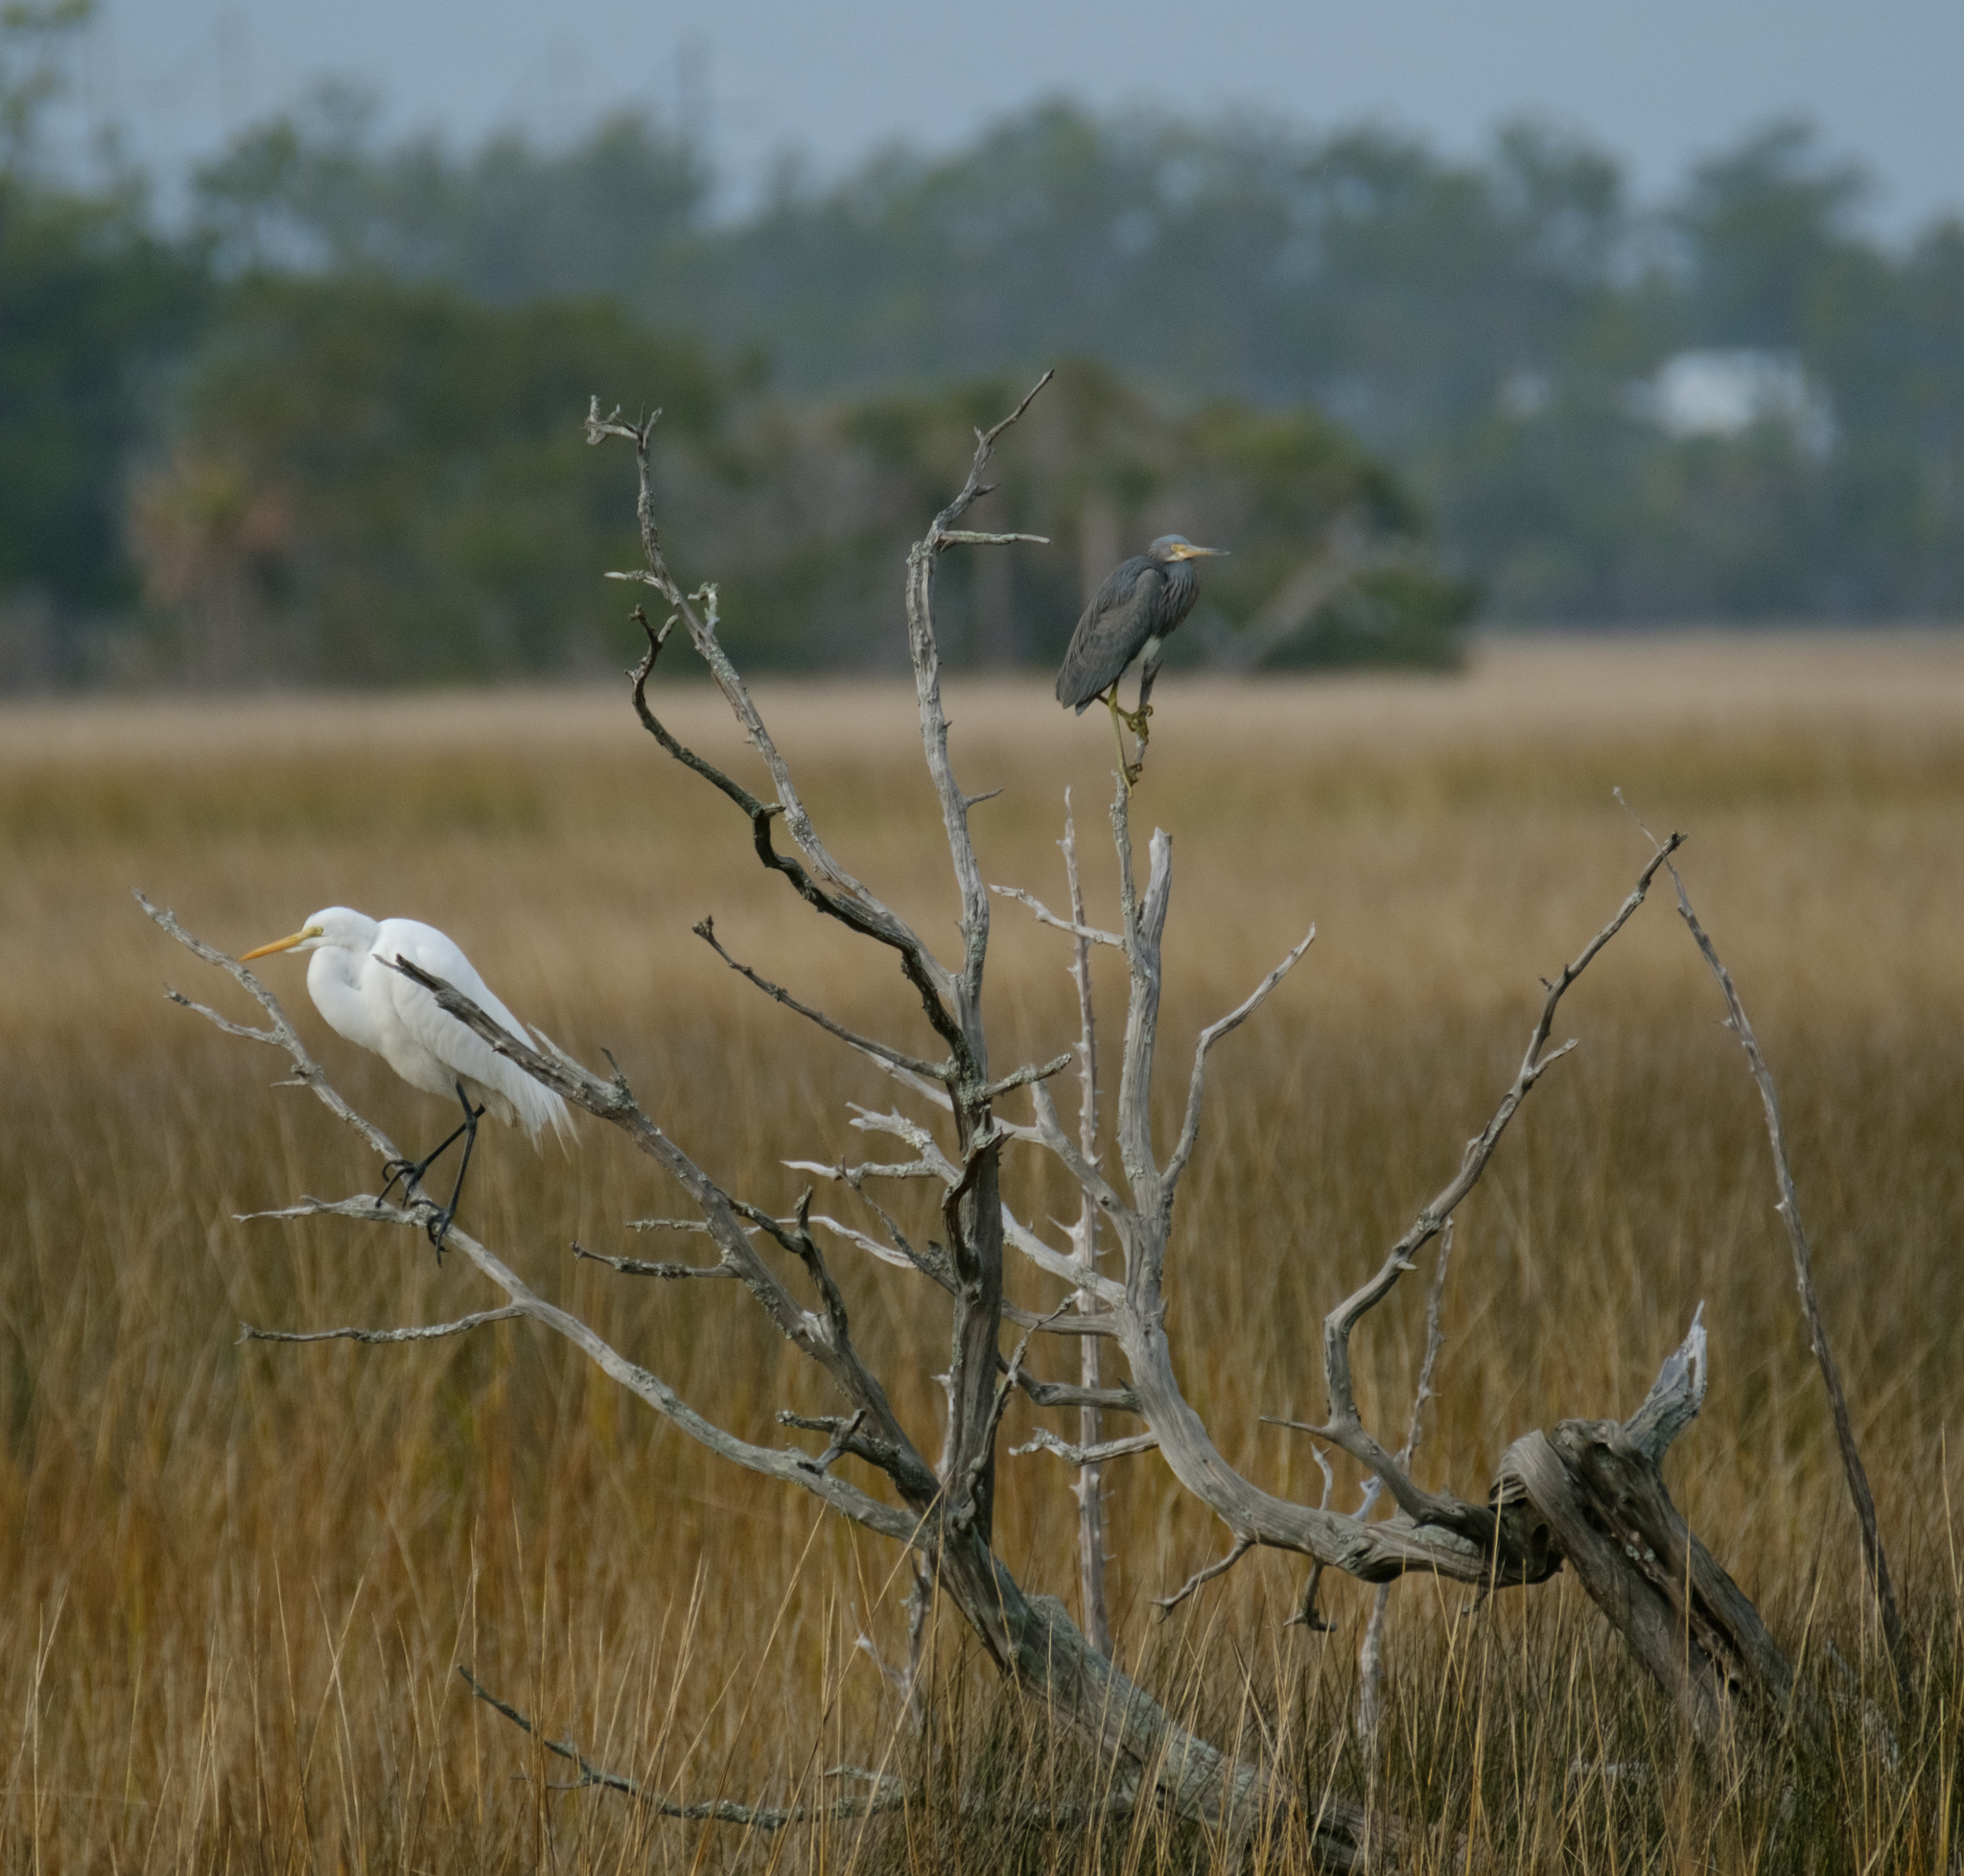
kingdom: Animalia
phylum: Chordata
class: Aves
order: Pelecaniformes
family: Ardeidae
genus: Egretta
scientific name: Egretta tricolor
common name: Tricolored heron
